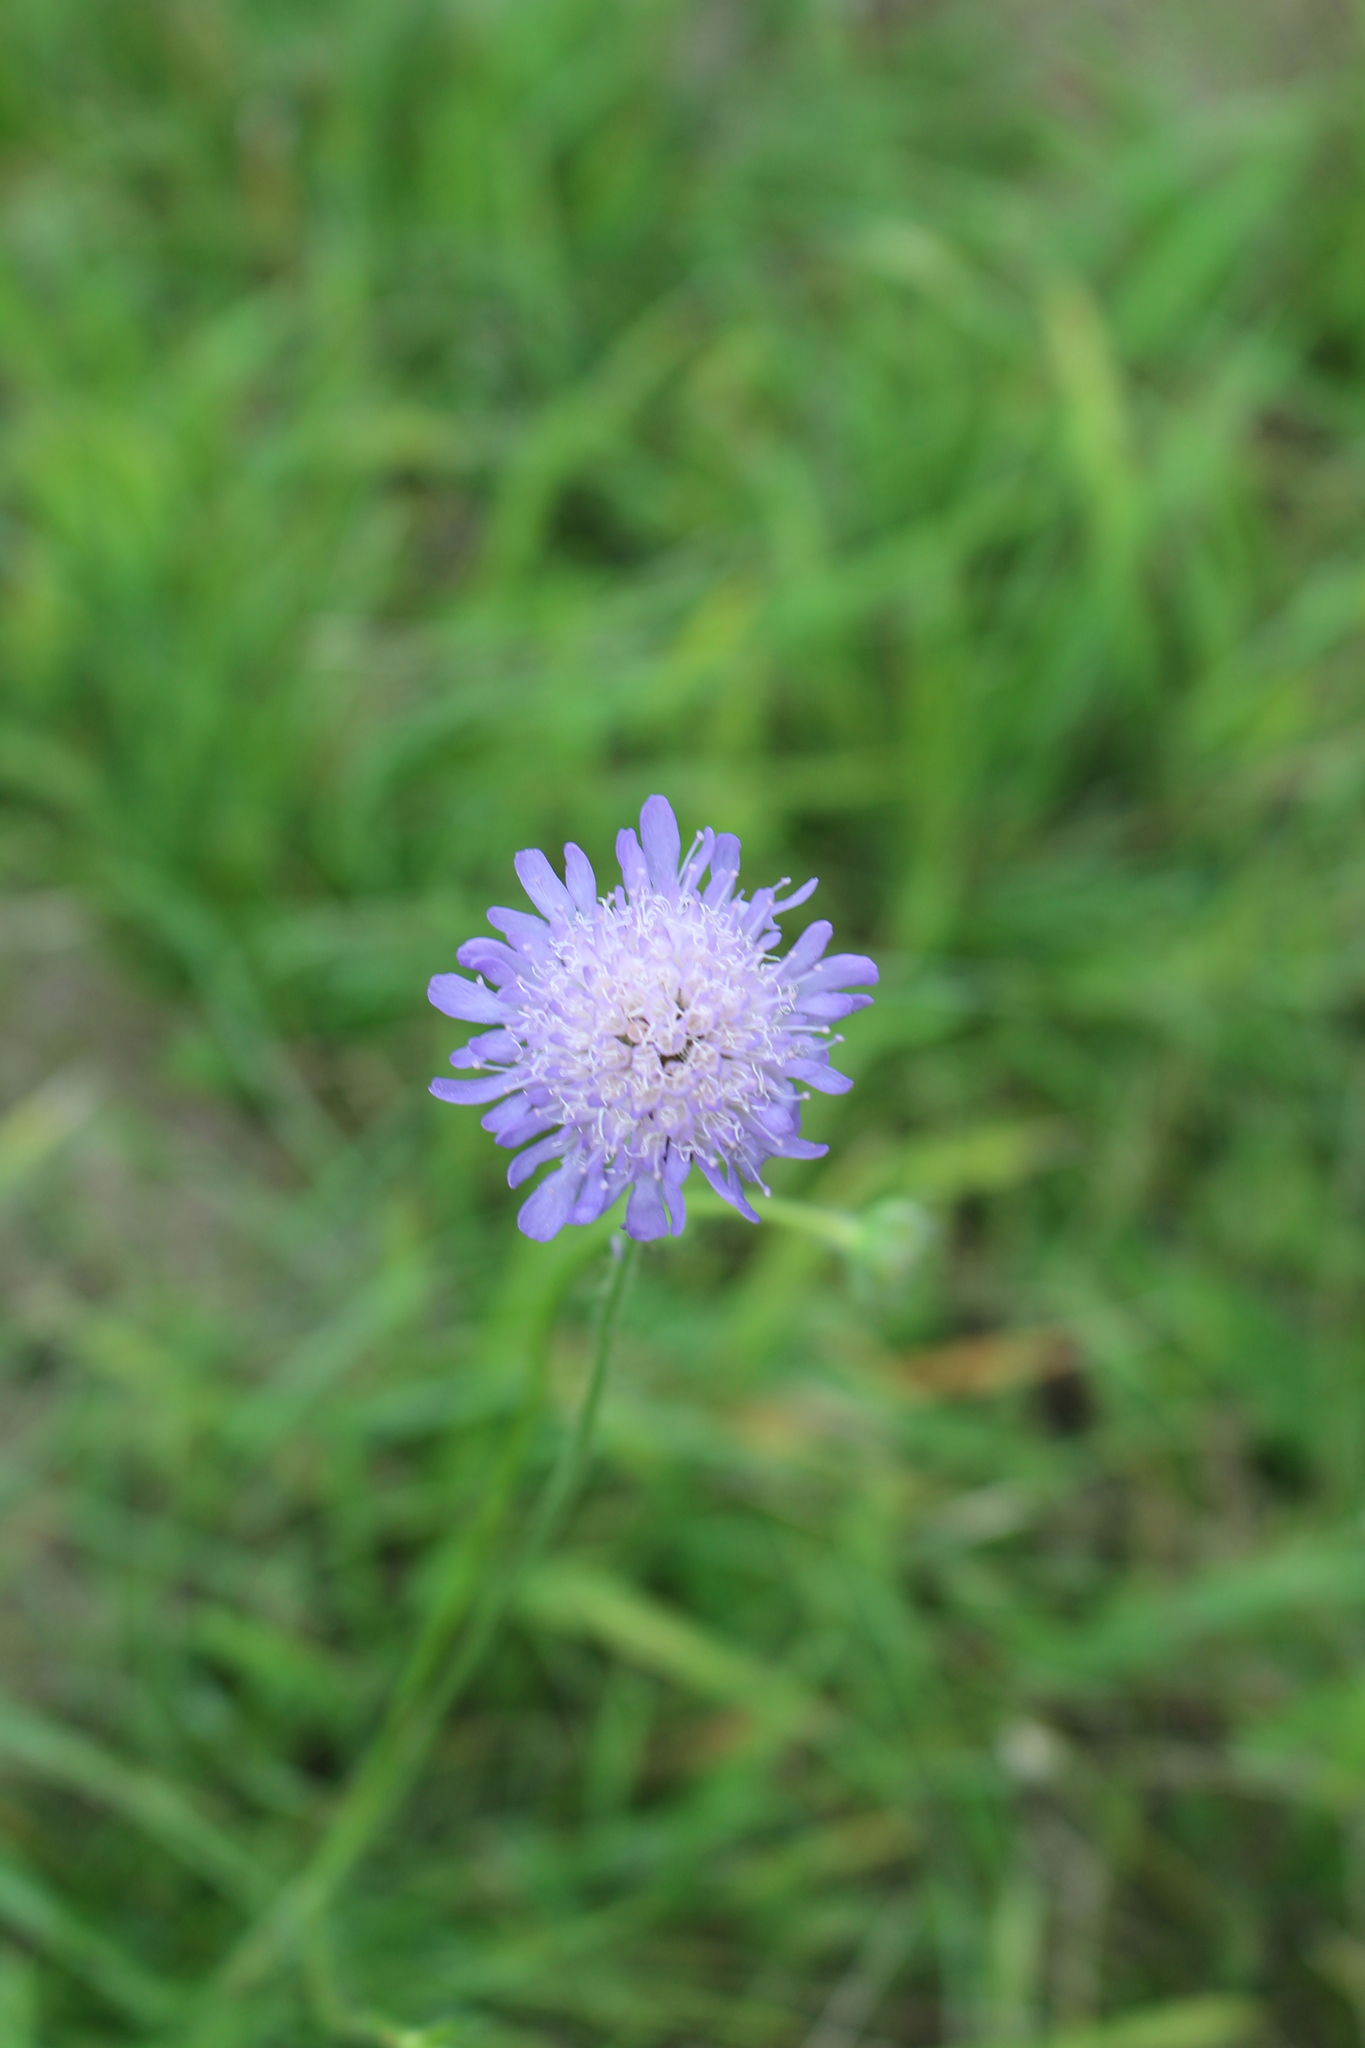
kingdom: Plantae
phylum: Tracheophyta
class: Magnoliopsida
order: Dipsacales
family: Caprifoliaceae
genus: Knautia
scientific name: Knautia arvensis
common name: Field scabiosa
